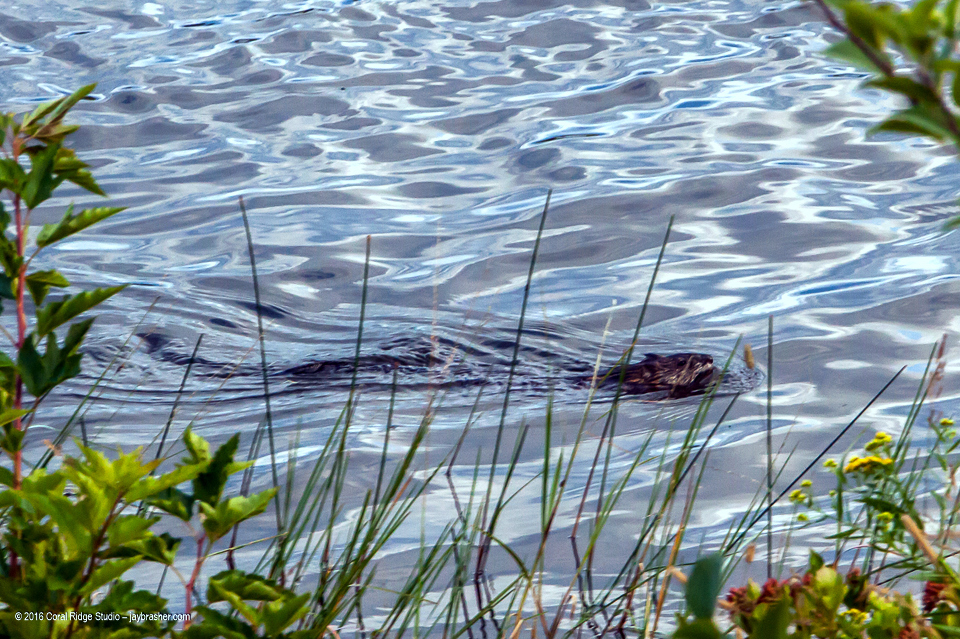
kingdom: Animalia
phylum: Chordata
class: Mammalia
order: Rodentia
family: Cricetidae
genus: Ondatra
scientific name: Ondatra zibethicus
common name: Muskrat
